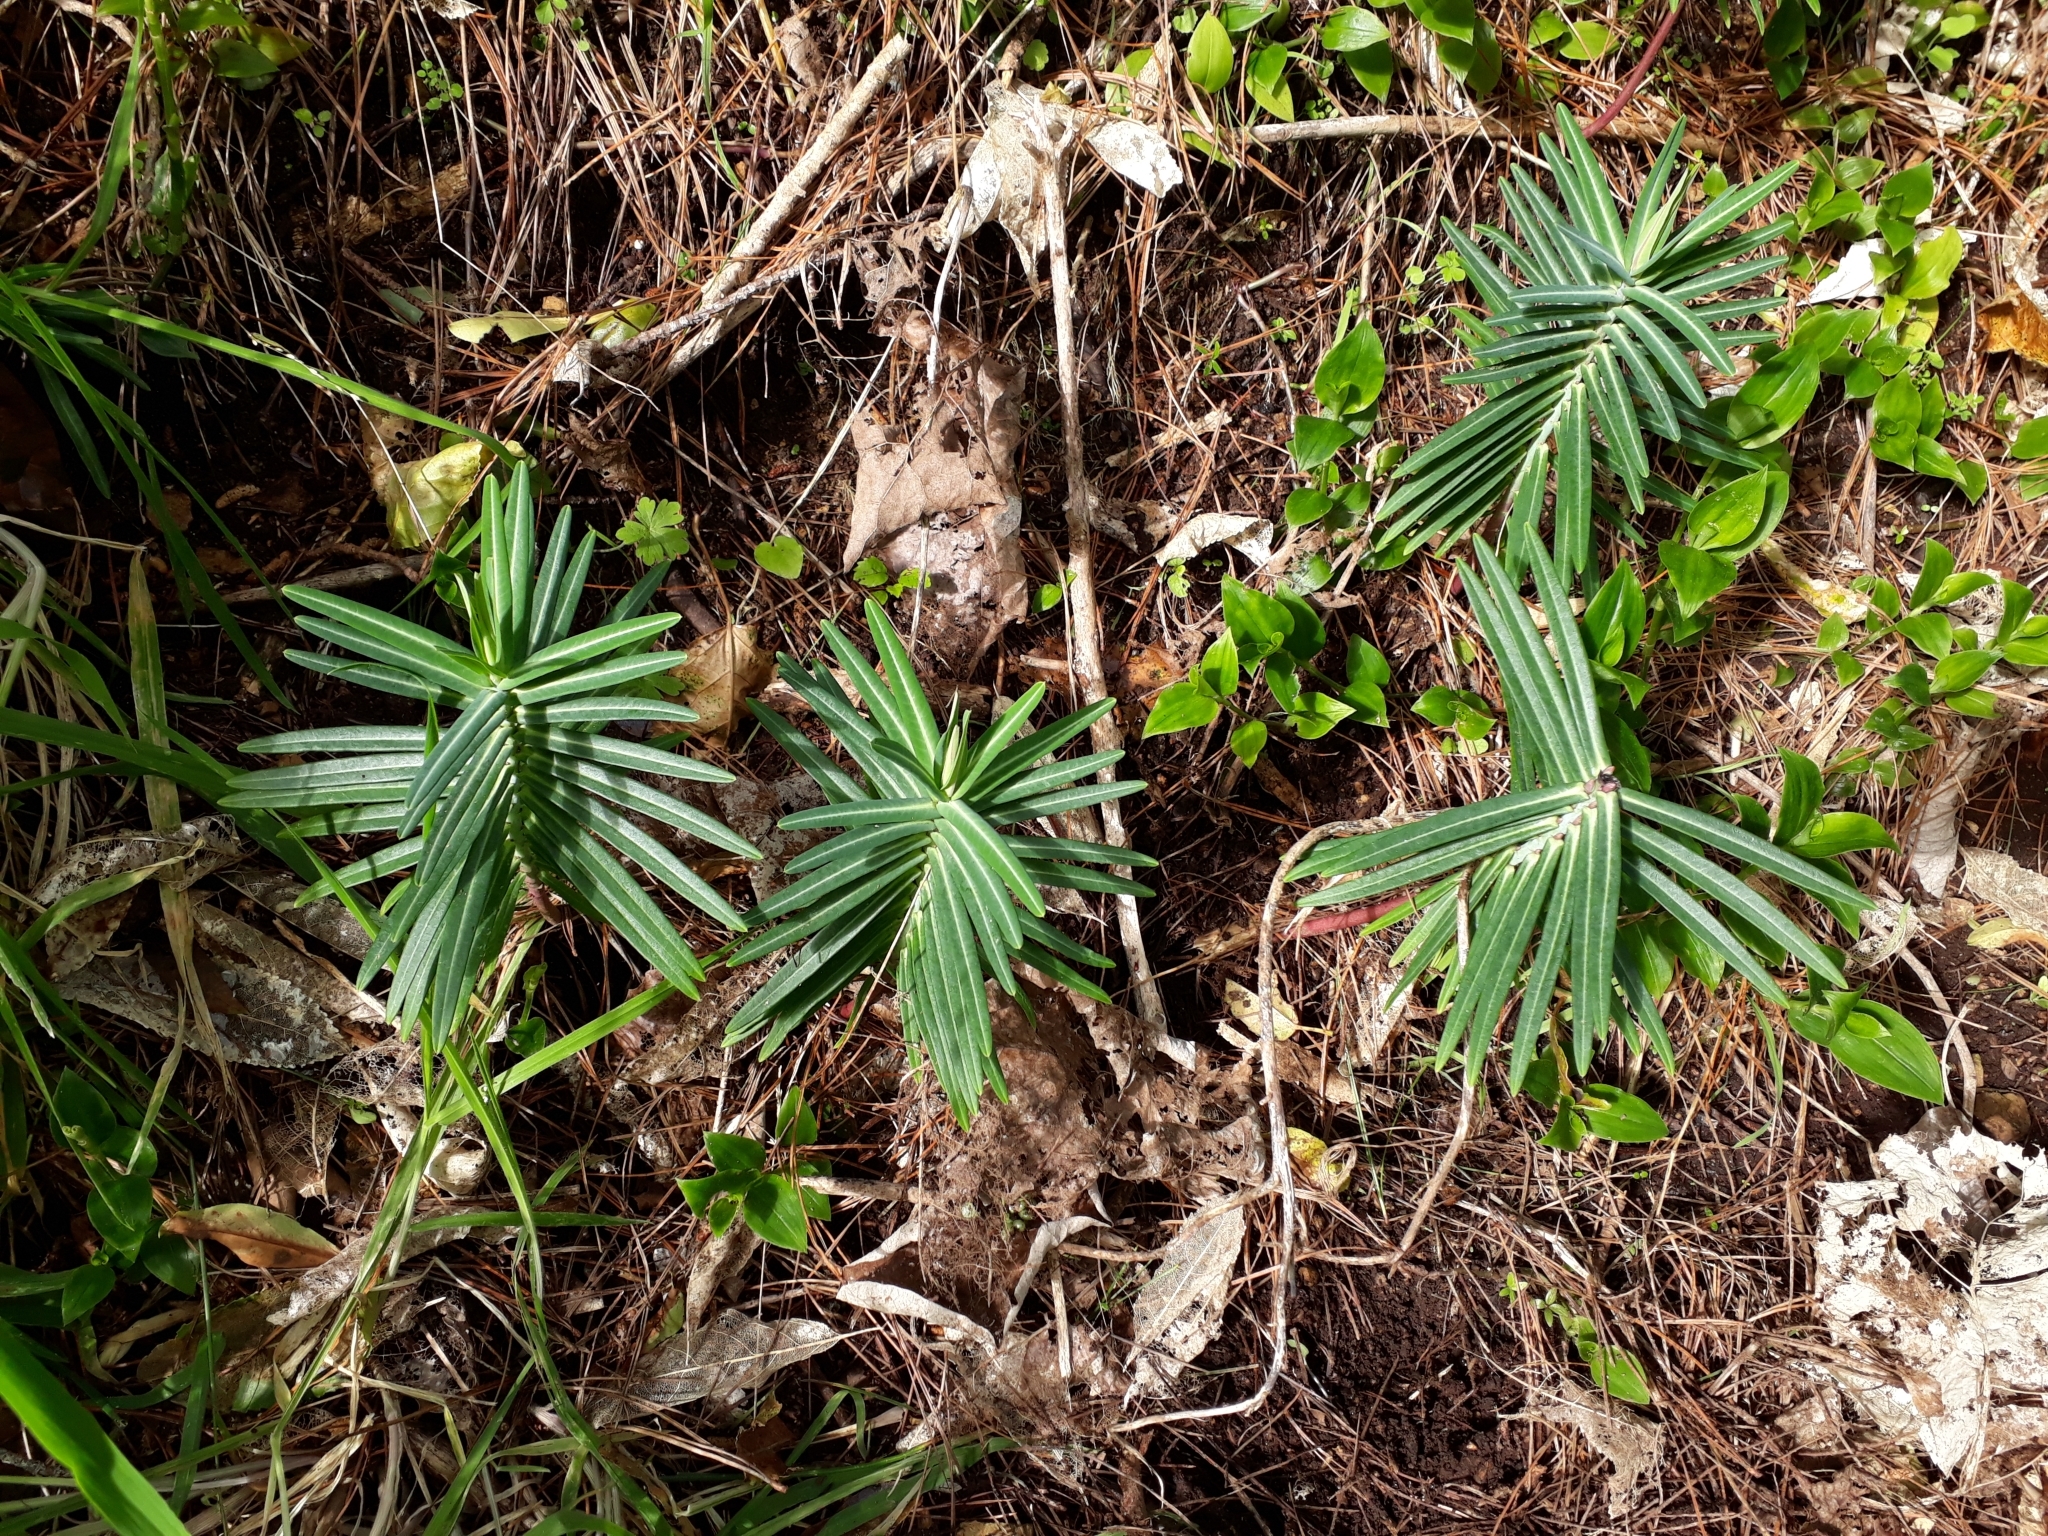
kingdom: Plantae
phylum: Tracheophyta
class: Magnoliopsida
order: Malpighiales
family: Euphorbiaceae
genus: Euphorbia
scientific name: Euphorbia lathyris
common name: Caper spurge
